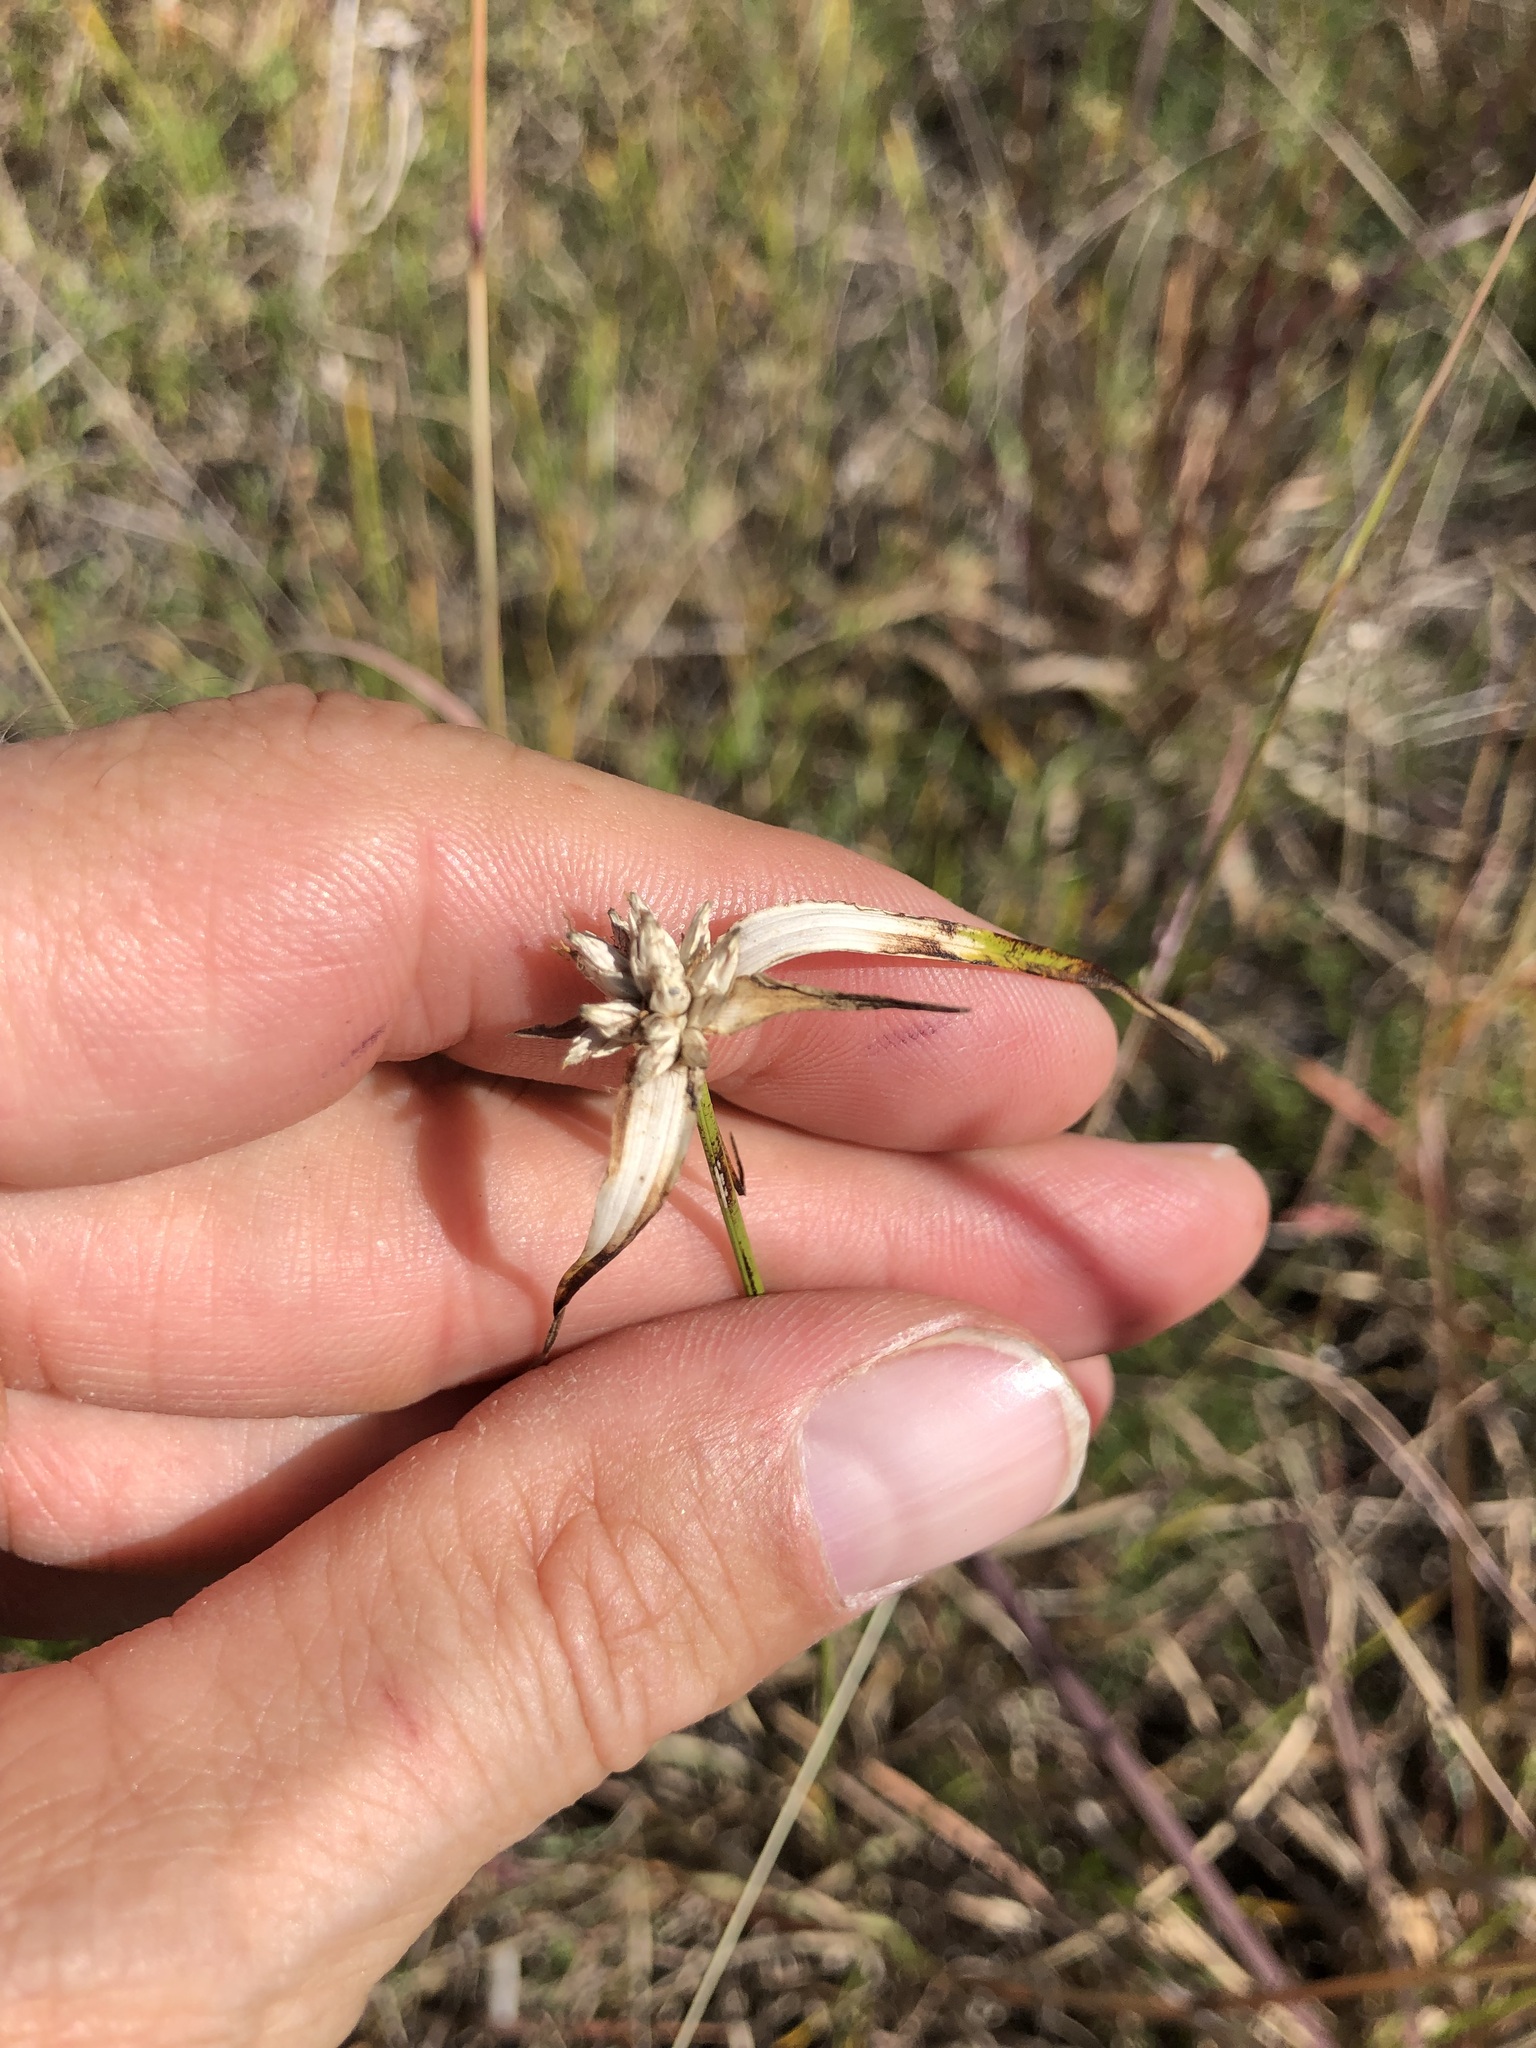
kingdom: Plantae
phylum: Tracheophyta
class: Liliopsida
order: Poales
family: Cyperaceae
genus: Rhynchospora
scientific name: Rhynchospora colorata
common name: Star sedge
